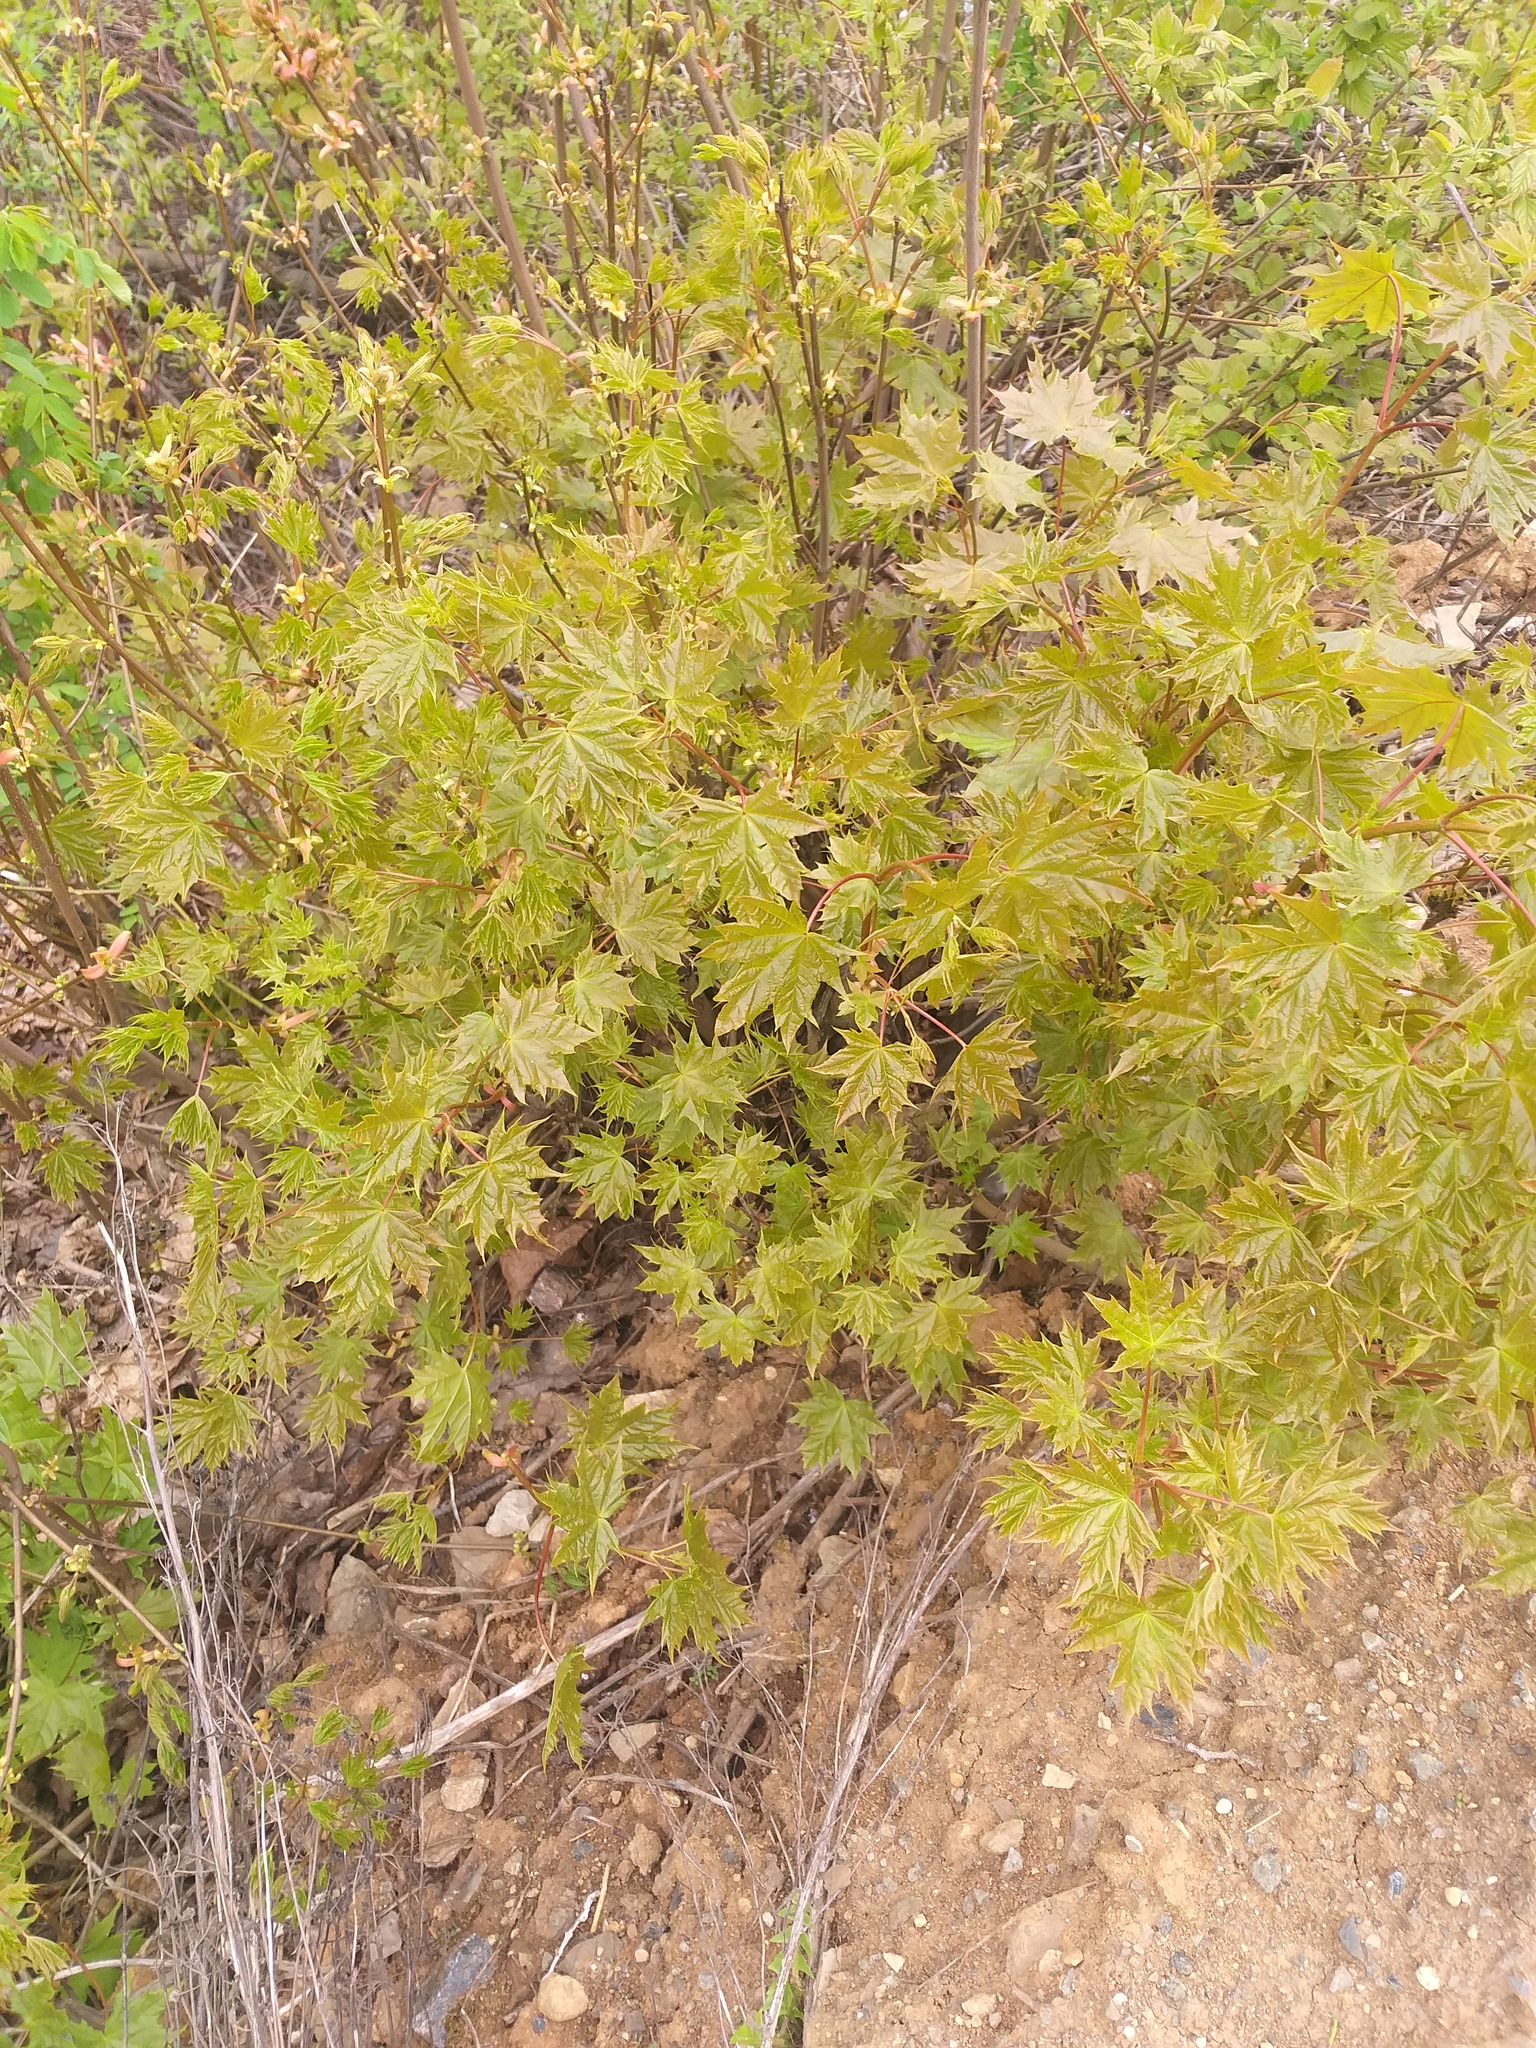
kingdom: Plantae
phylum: Tracheophyta
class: Magnoliopsida
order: Sapindales
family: Sapindaceae
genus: Acer
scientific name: Acer platanoides
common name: Norway maple
